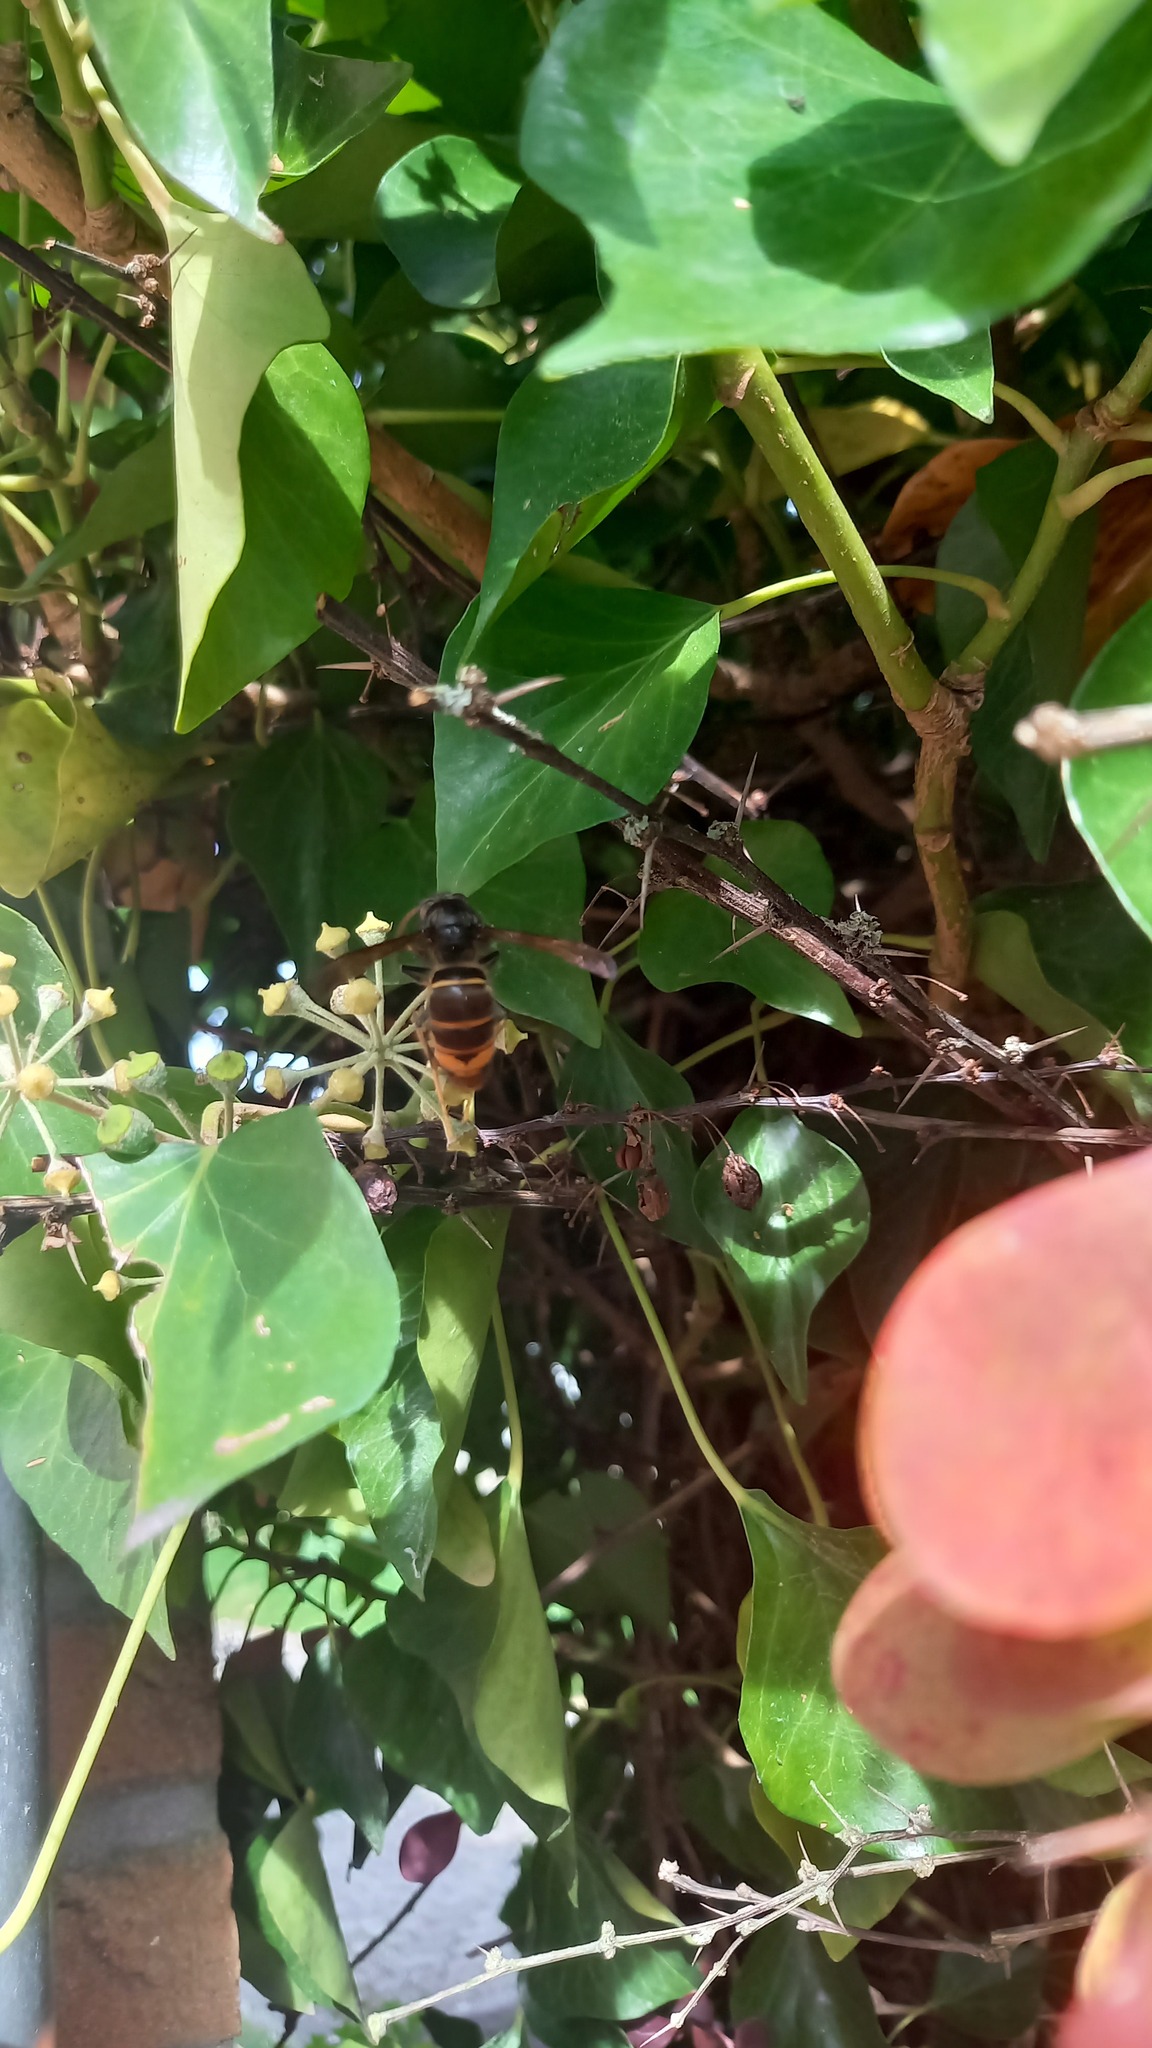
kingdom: Animalia
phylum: Arthropoda
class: Insecta
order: Hymenoptera
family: Vespidae
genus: Vespa
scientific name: Vespa velutina
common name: Asian hornet
